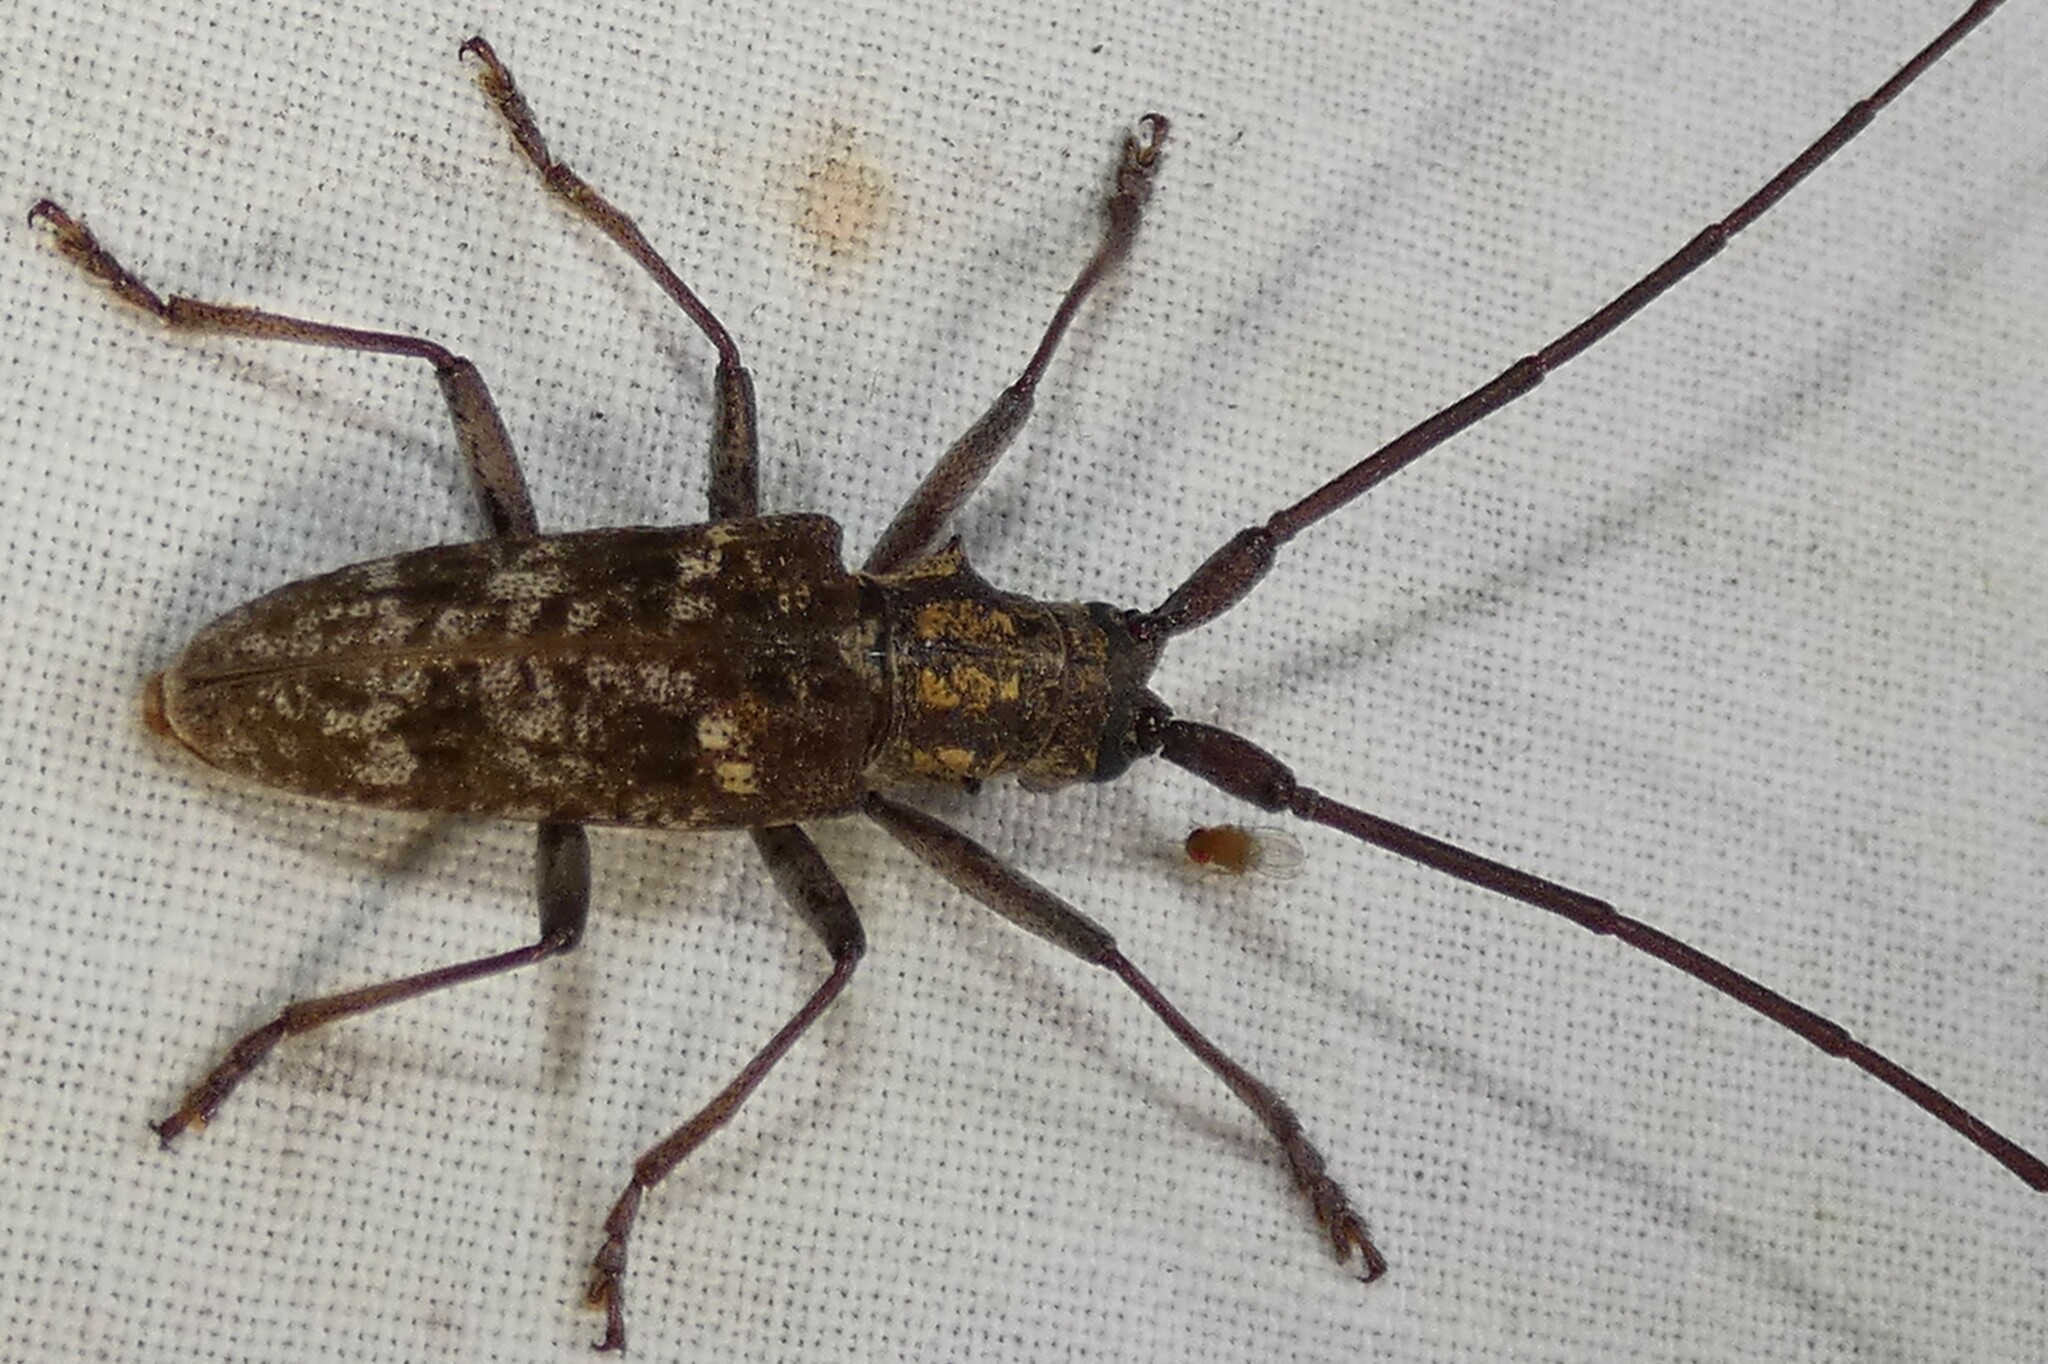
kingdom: Animalia
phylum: Arthropoda
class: Insecta
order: Coleoptera
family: Cerambycidae
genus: Monochamus
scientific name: Monochamus carolinensis
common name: Carolina pine sawyer
